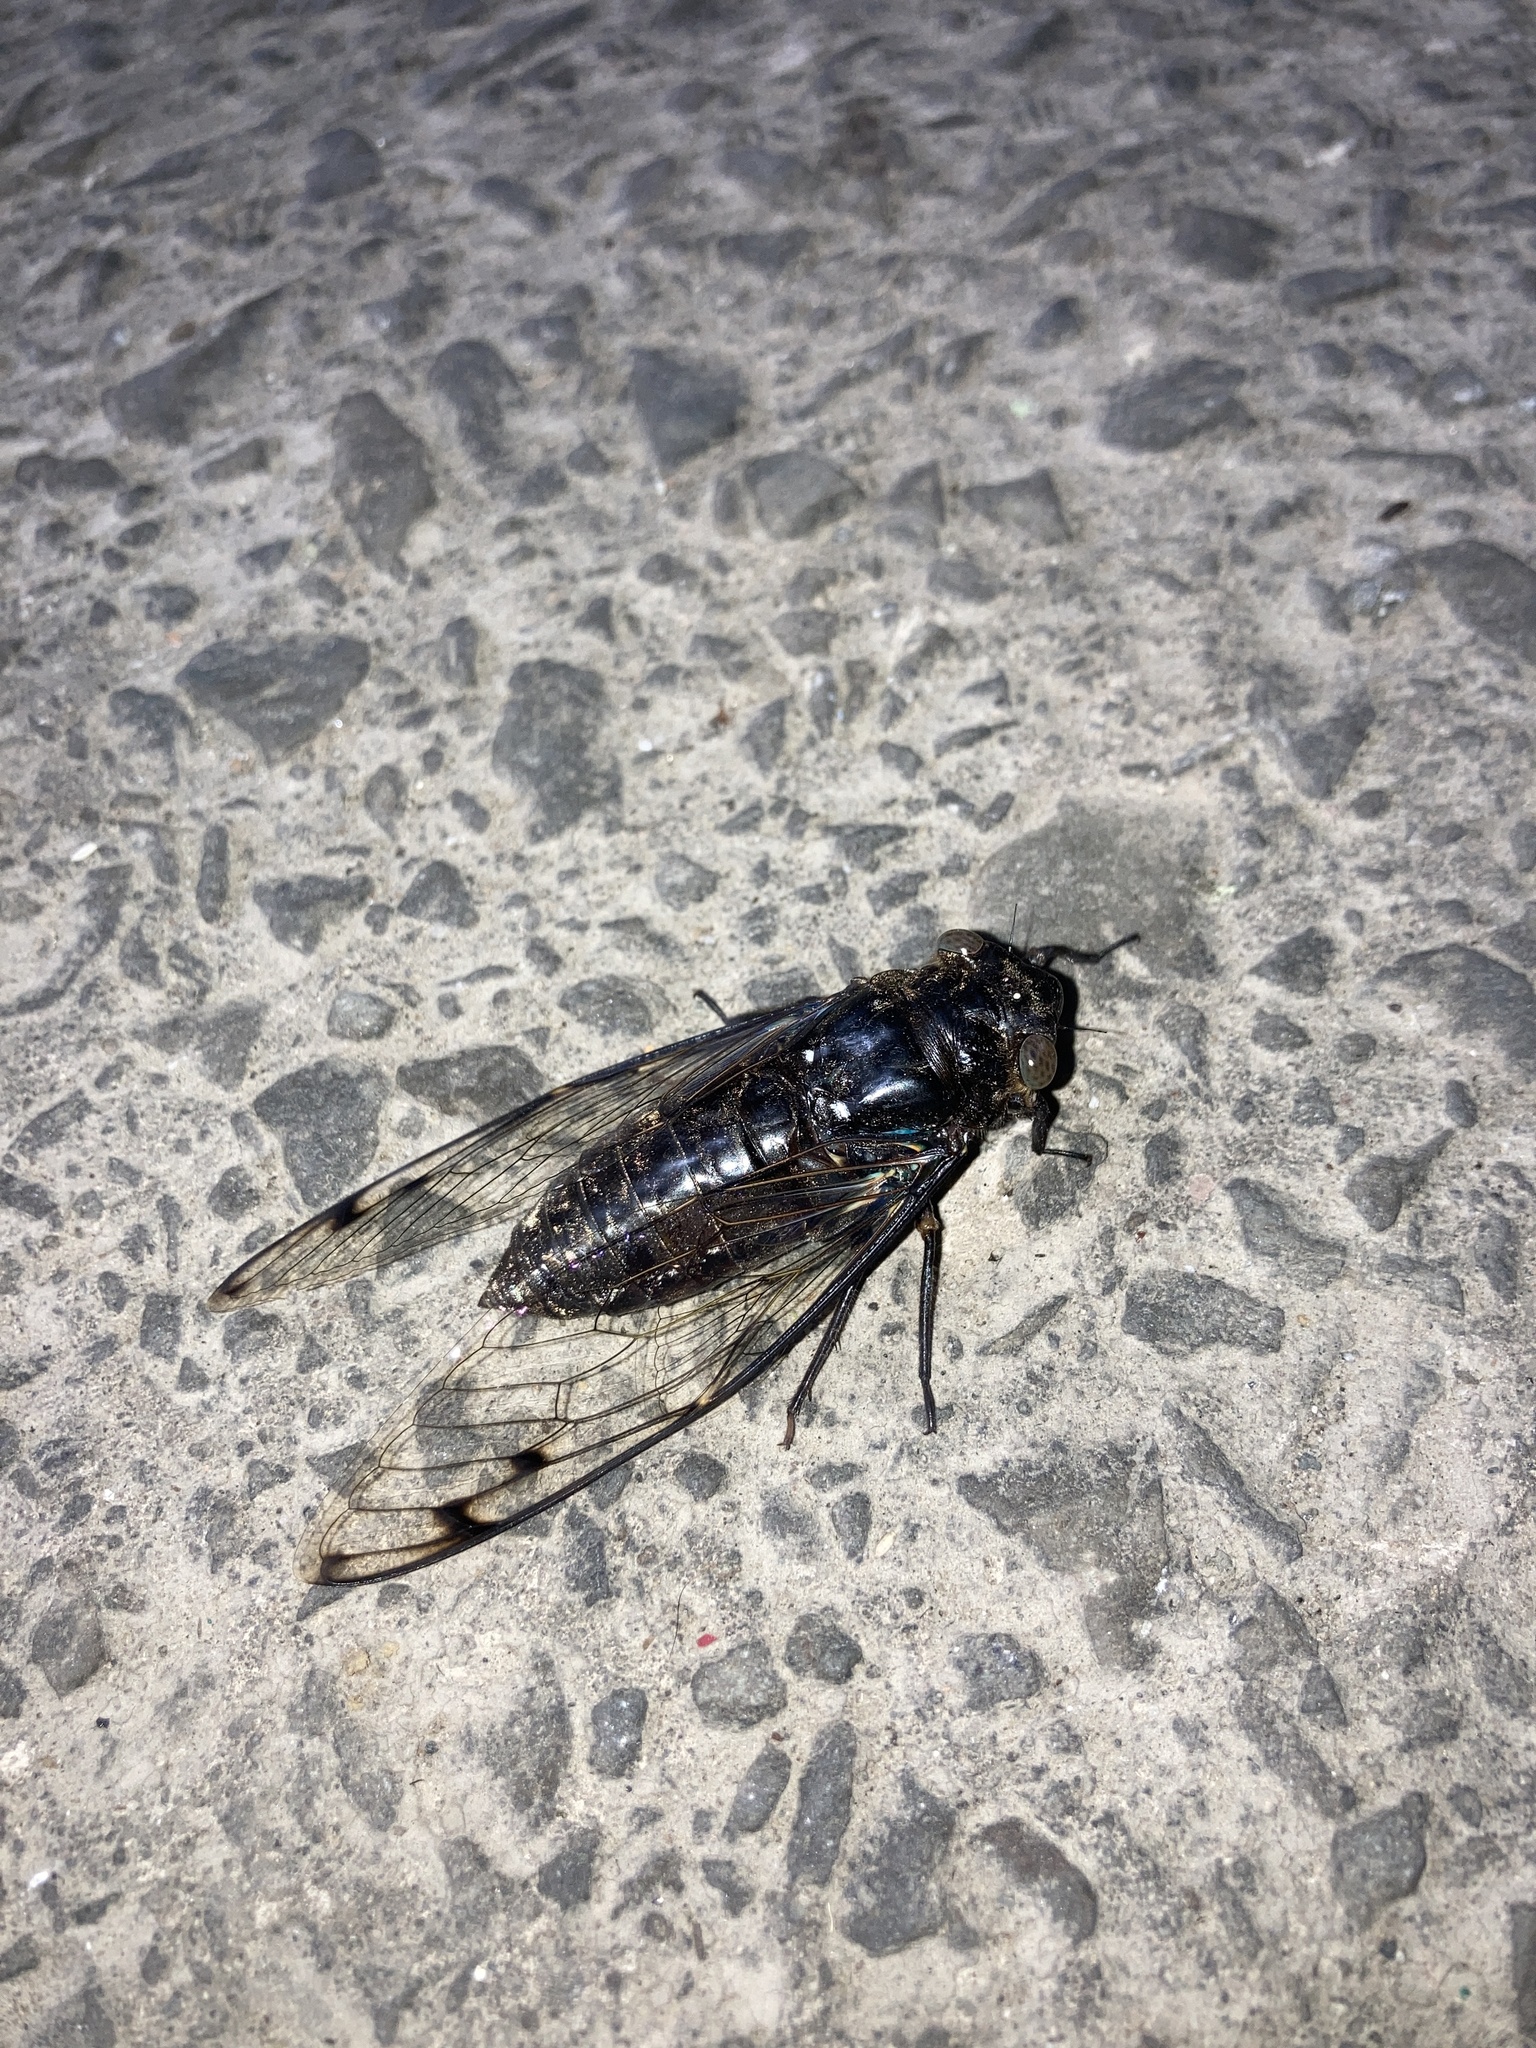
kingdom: Animalia
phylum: Arthropoda
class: Insecta
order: Hemiptera
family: Cicadidae
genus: Champaka
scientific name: Champaka viridimaculata
